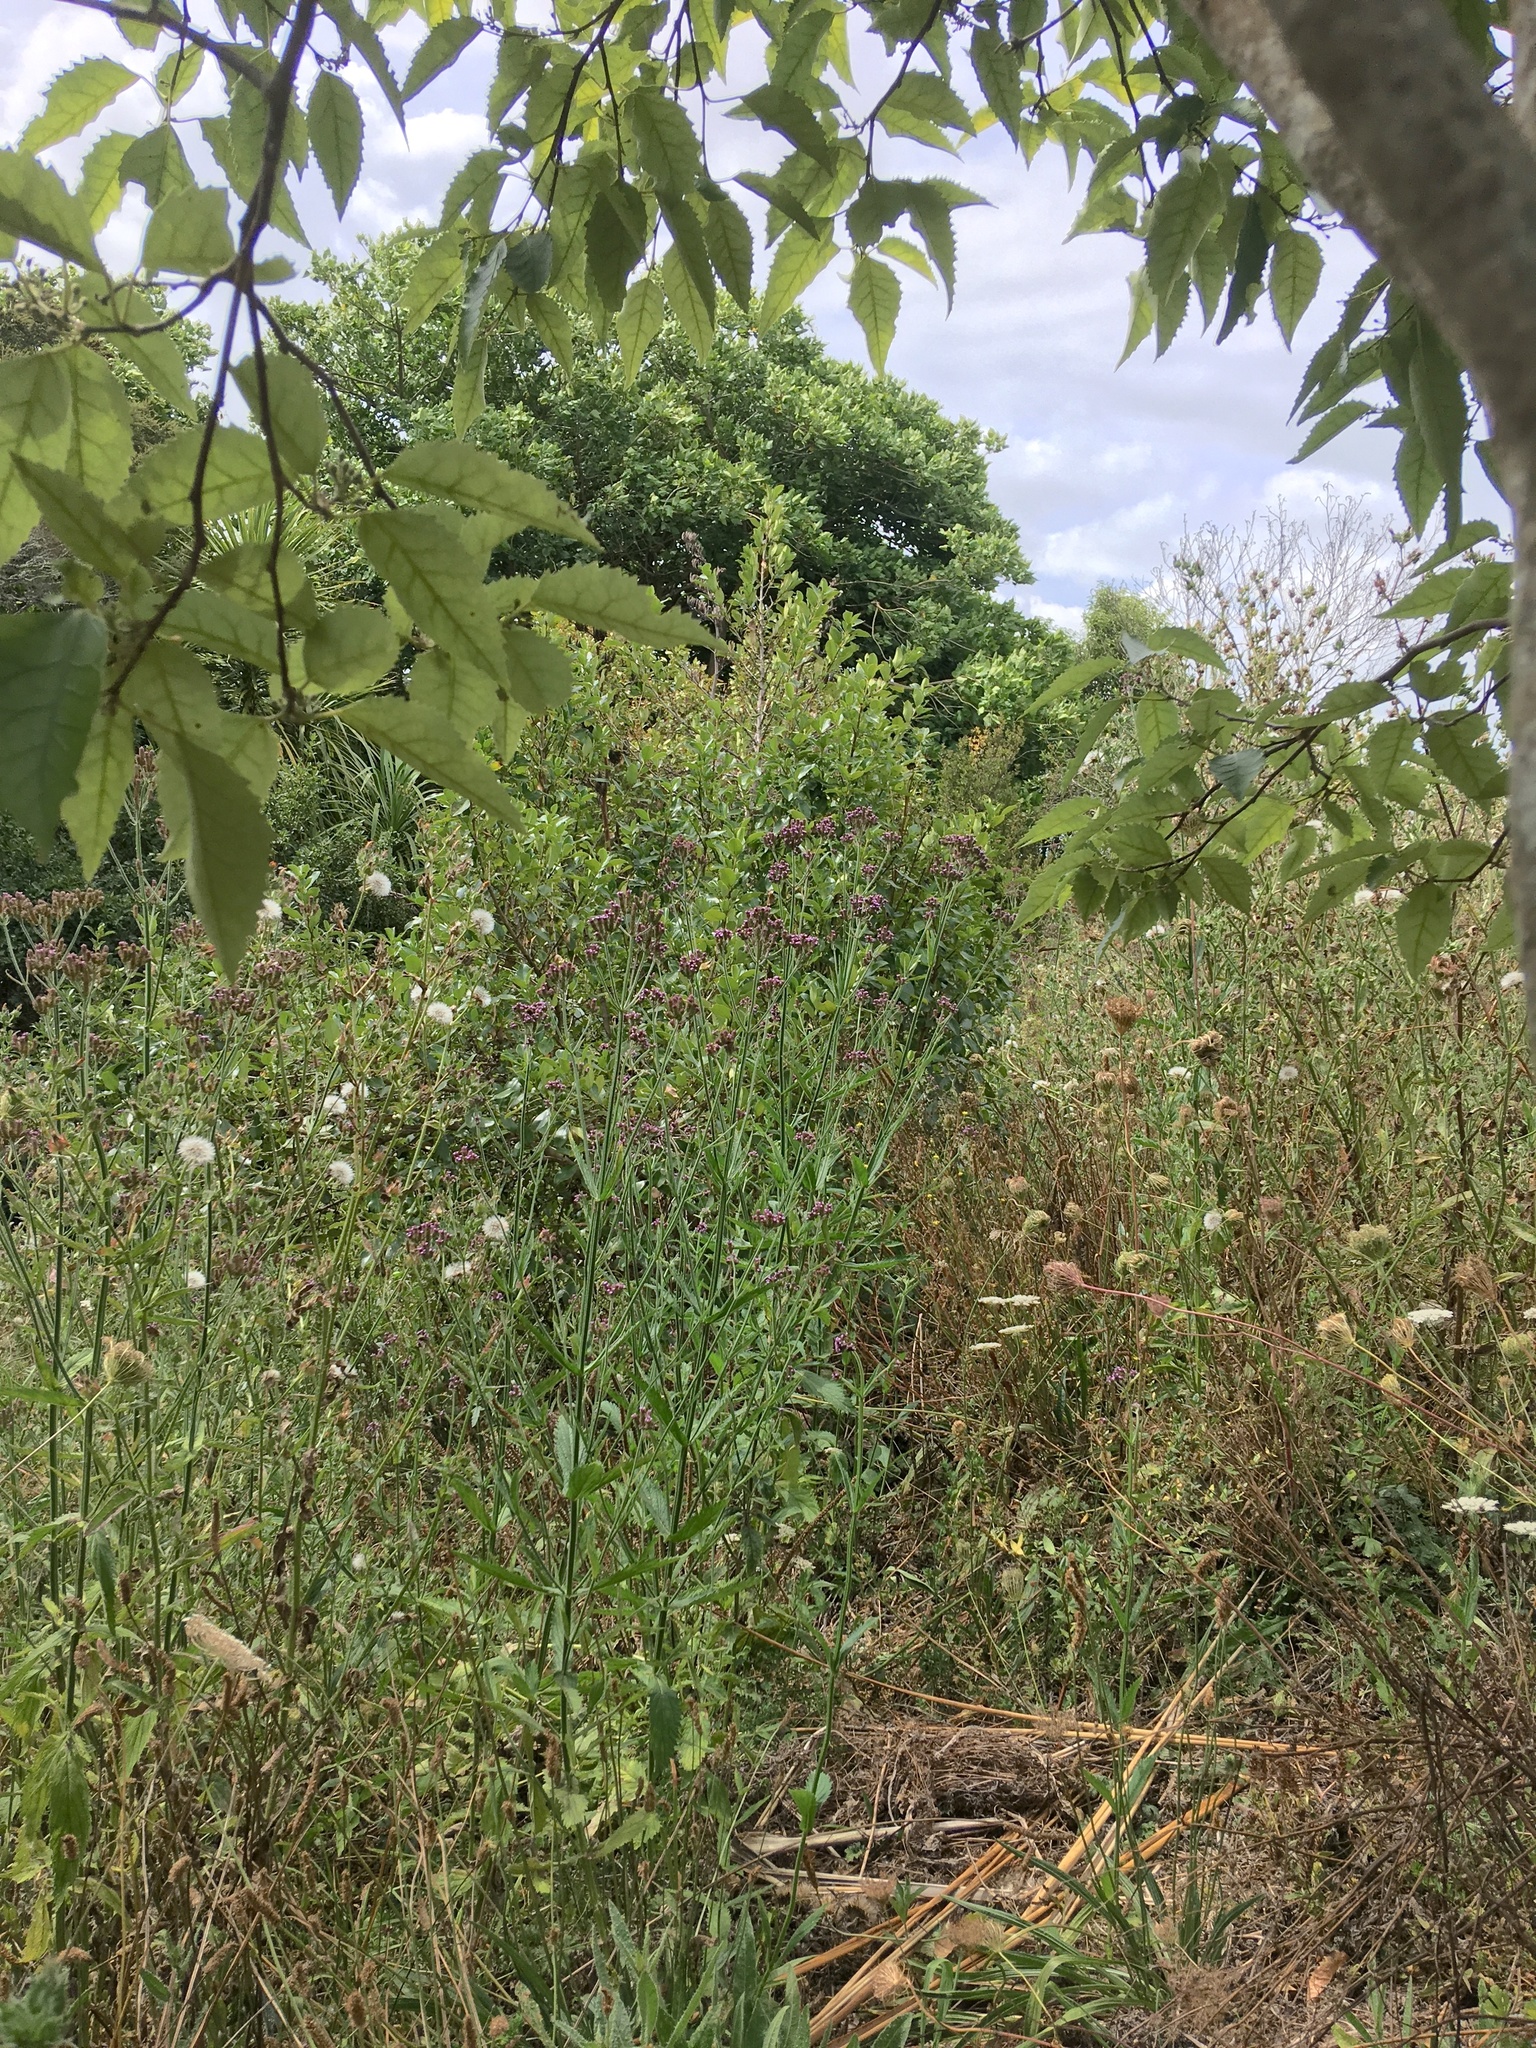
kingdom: Plantae
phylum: Tracheophyta
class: Magnoliopsida
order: Lamiales
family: Verbenaceae
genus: Verbena
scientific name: Verbena incompta
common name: Purpletop vervain
